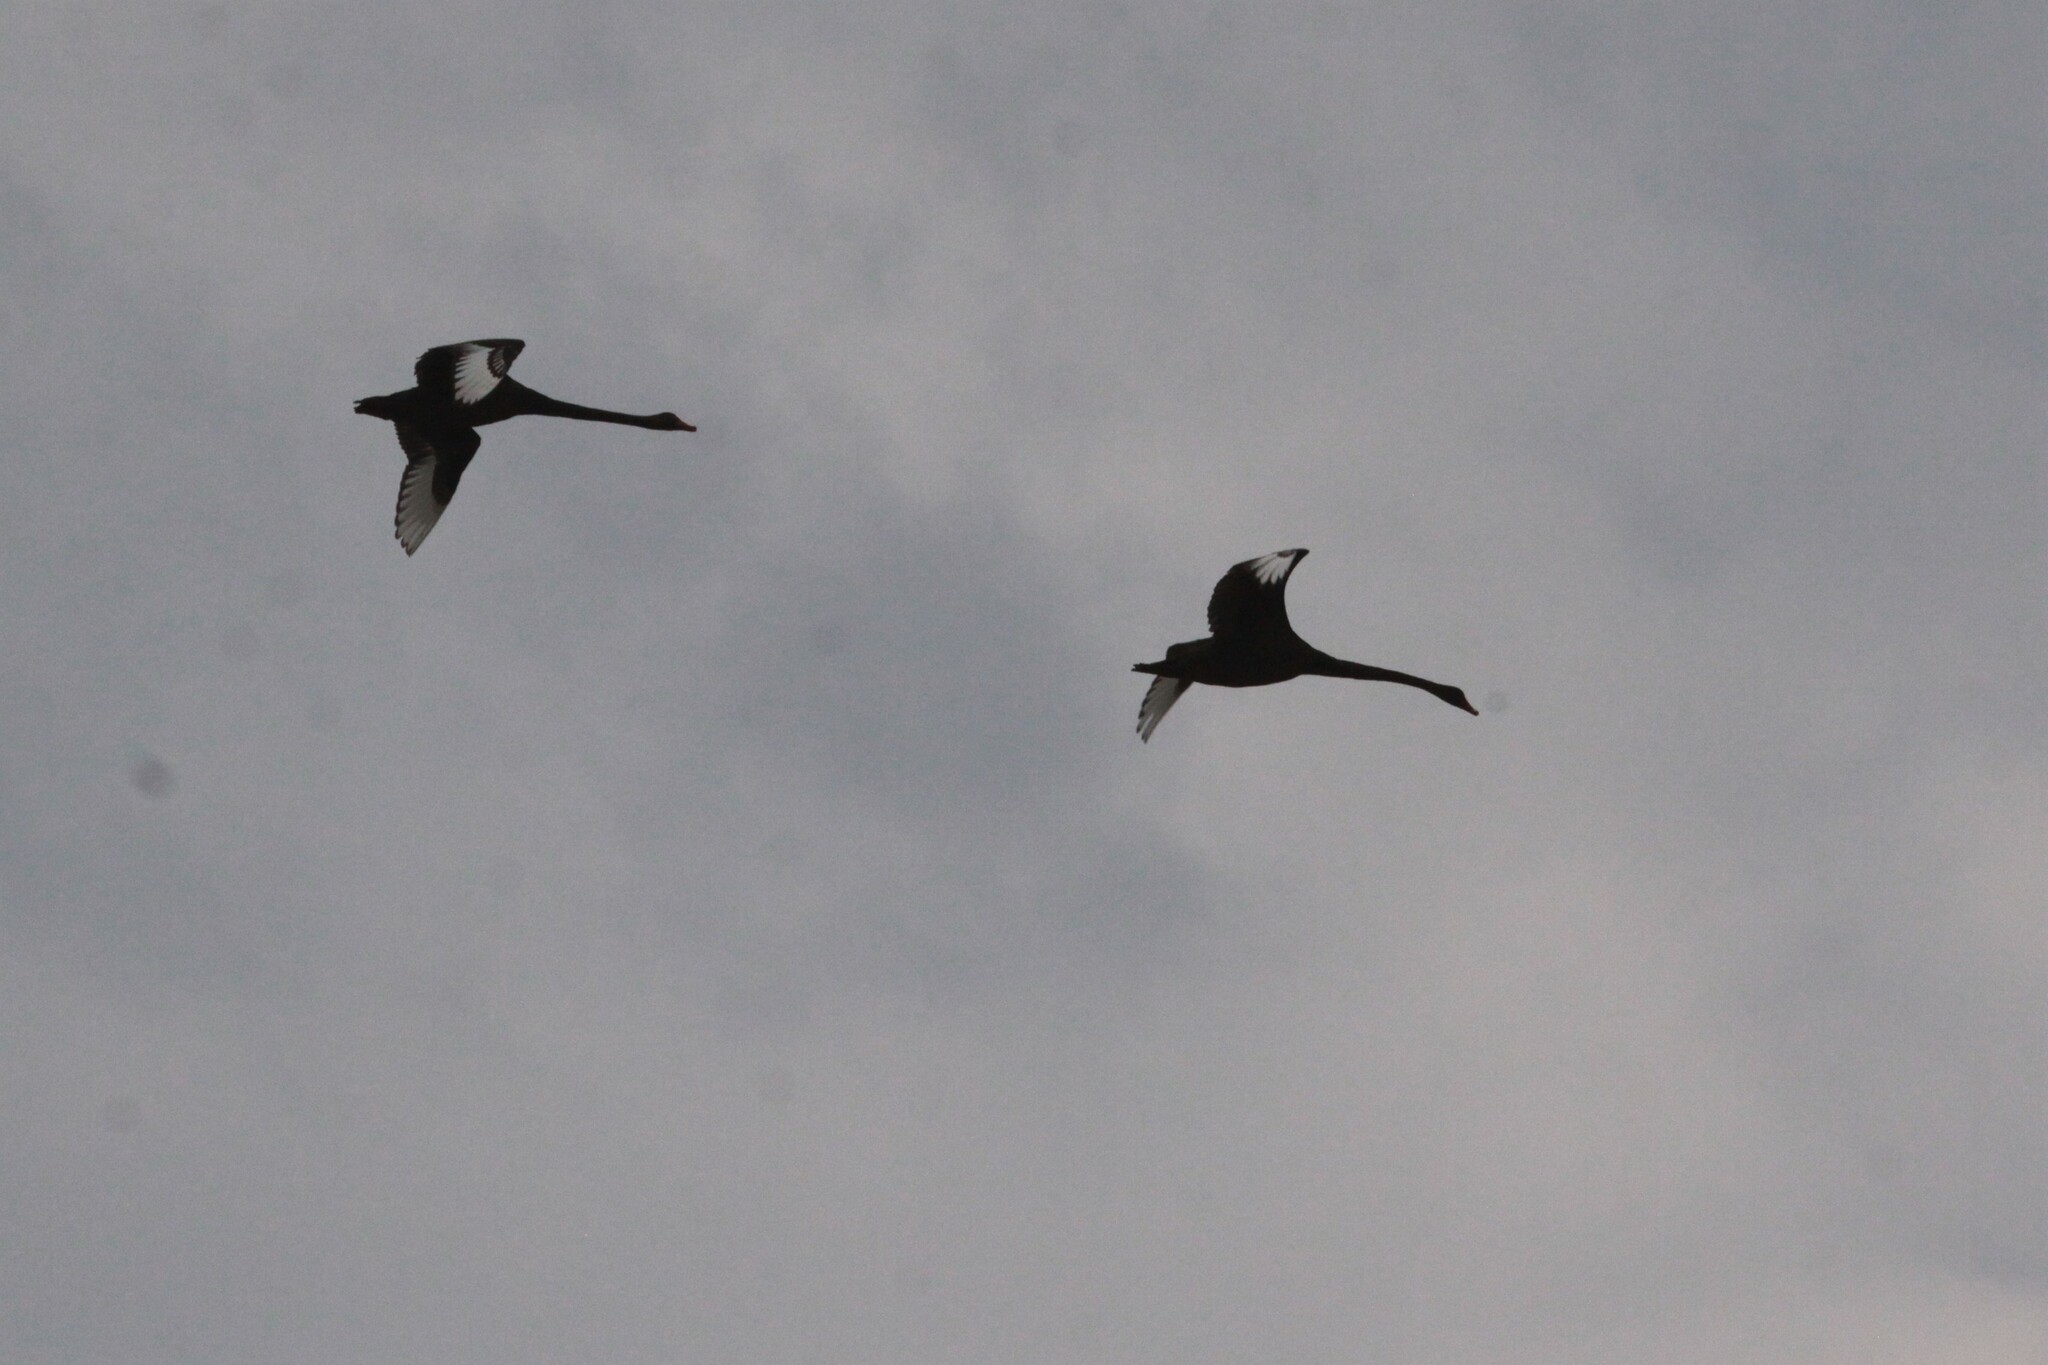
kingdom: Animalia
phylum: Chordata
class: Aves
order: Anseriformes
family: Anatidae
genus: Cygnus
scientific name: Cygnus atratus
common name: Black swan
